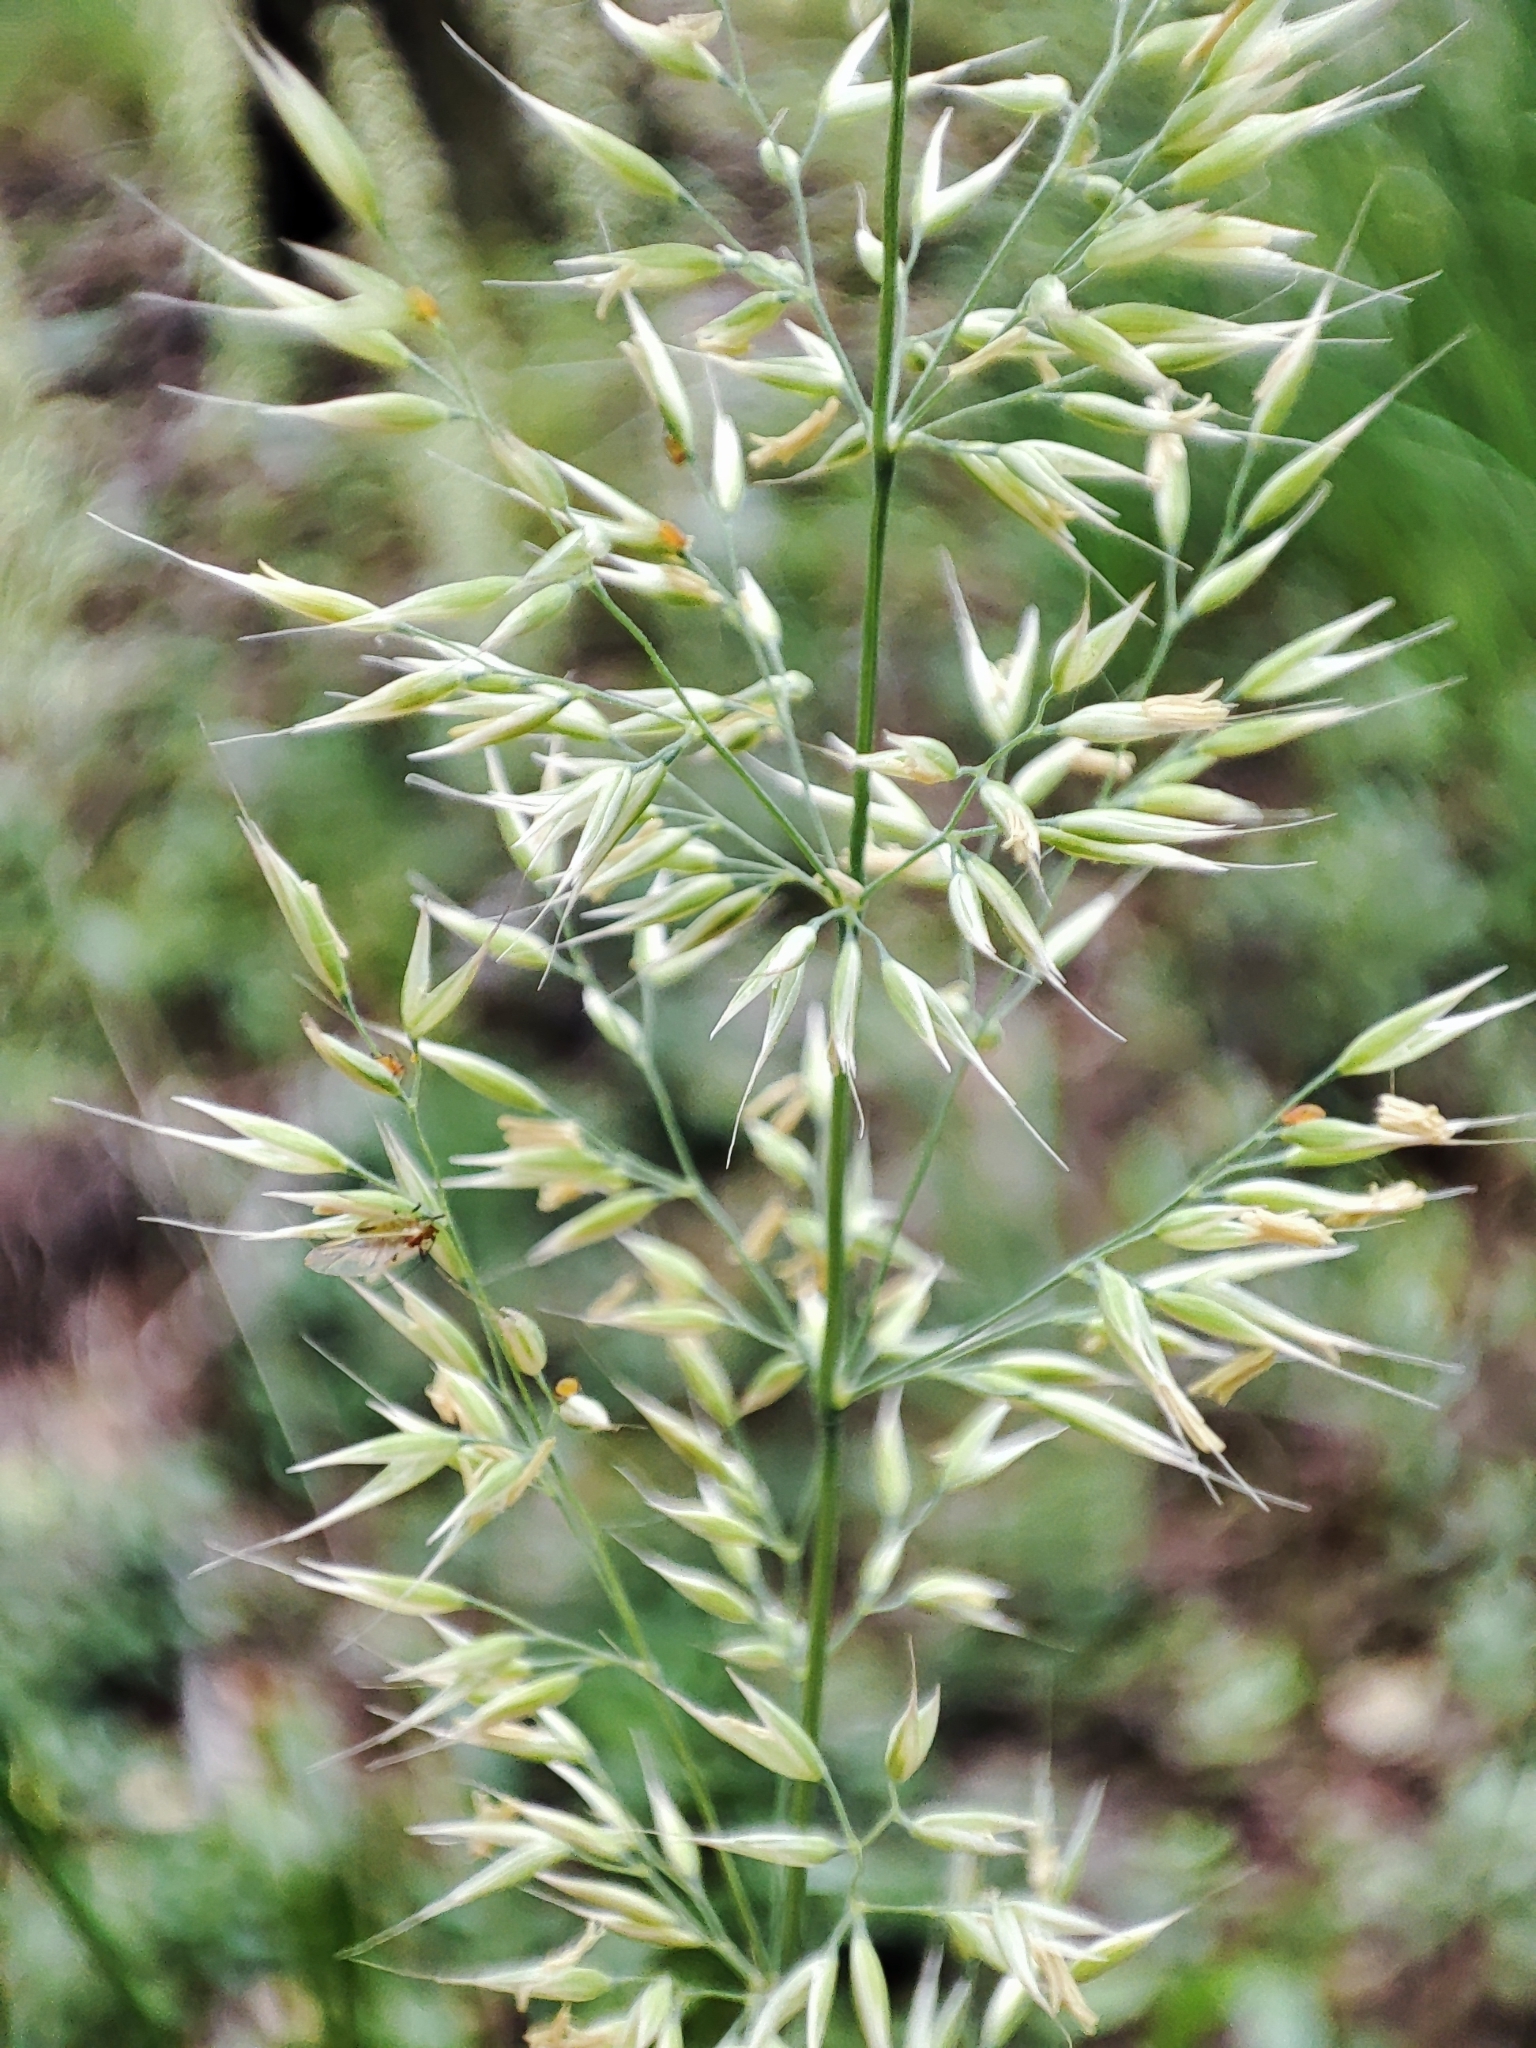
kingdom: Plantae
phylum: Tracheophyta
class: Liliopsida
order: Poales
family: Poaceae
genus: Calamagrostis
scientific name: Calamagrostis arundinacea
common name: Metskastik
